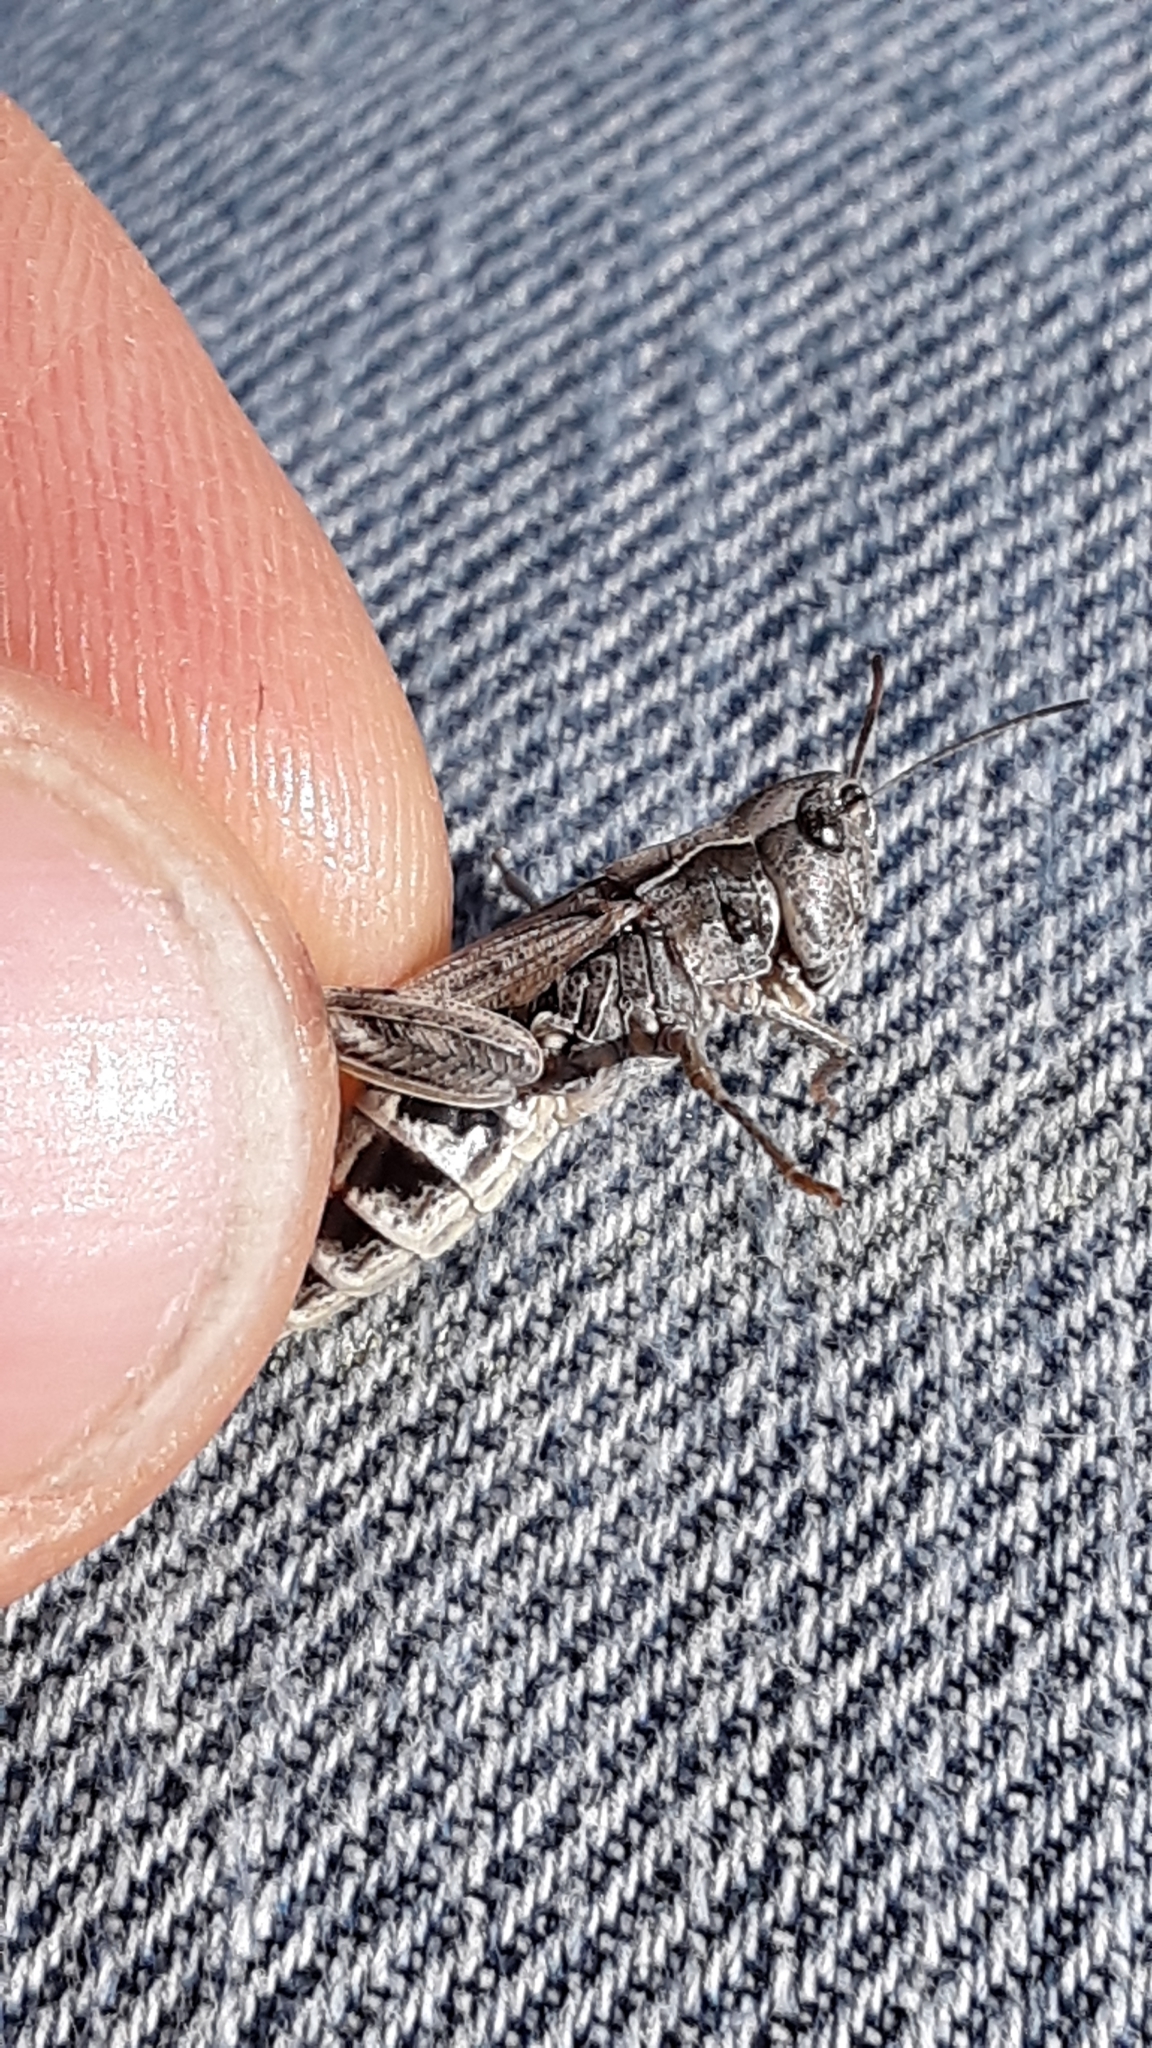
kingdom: Animalia
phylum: Arthropoda
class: Insecta
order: Orthoptera
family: Acrididae
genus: Aeropedellus
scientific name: Aeropedellus clavatus
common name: Clubhorned grasshopper
